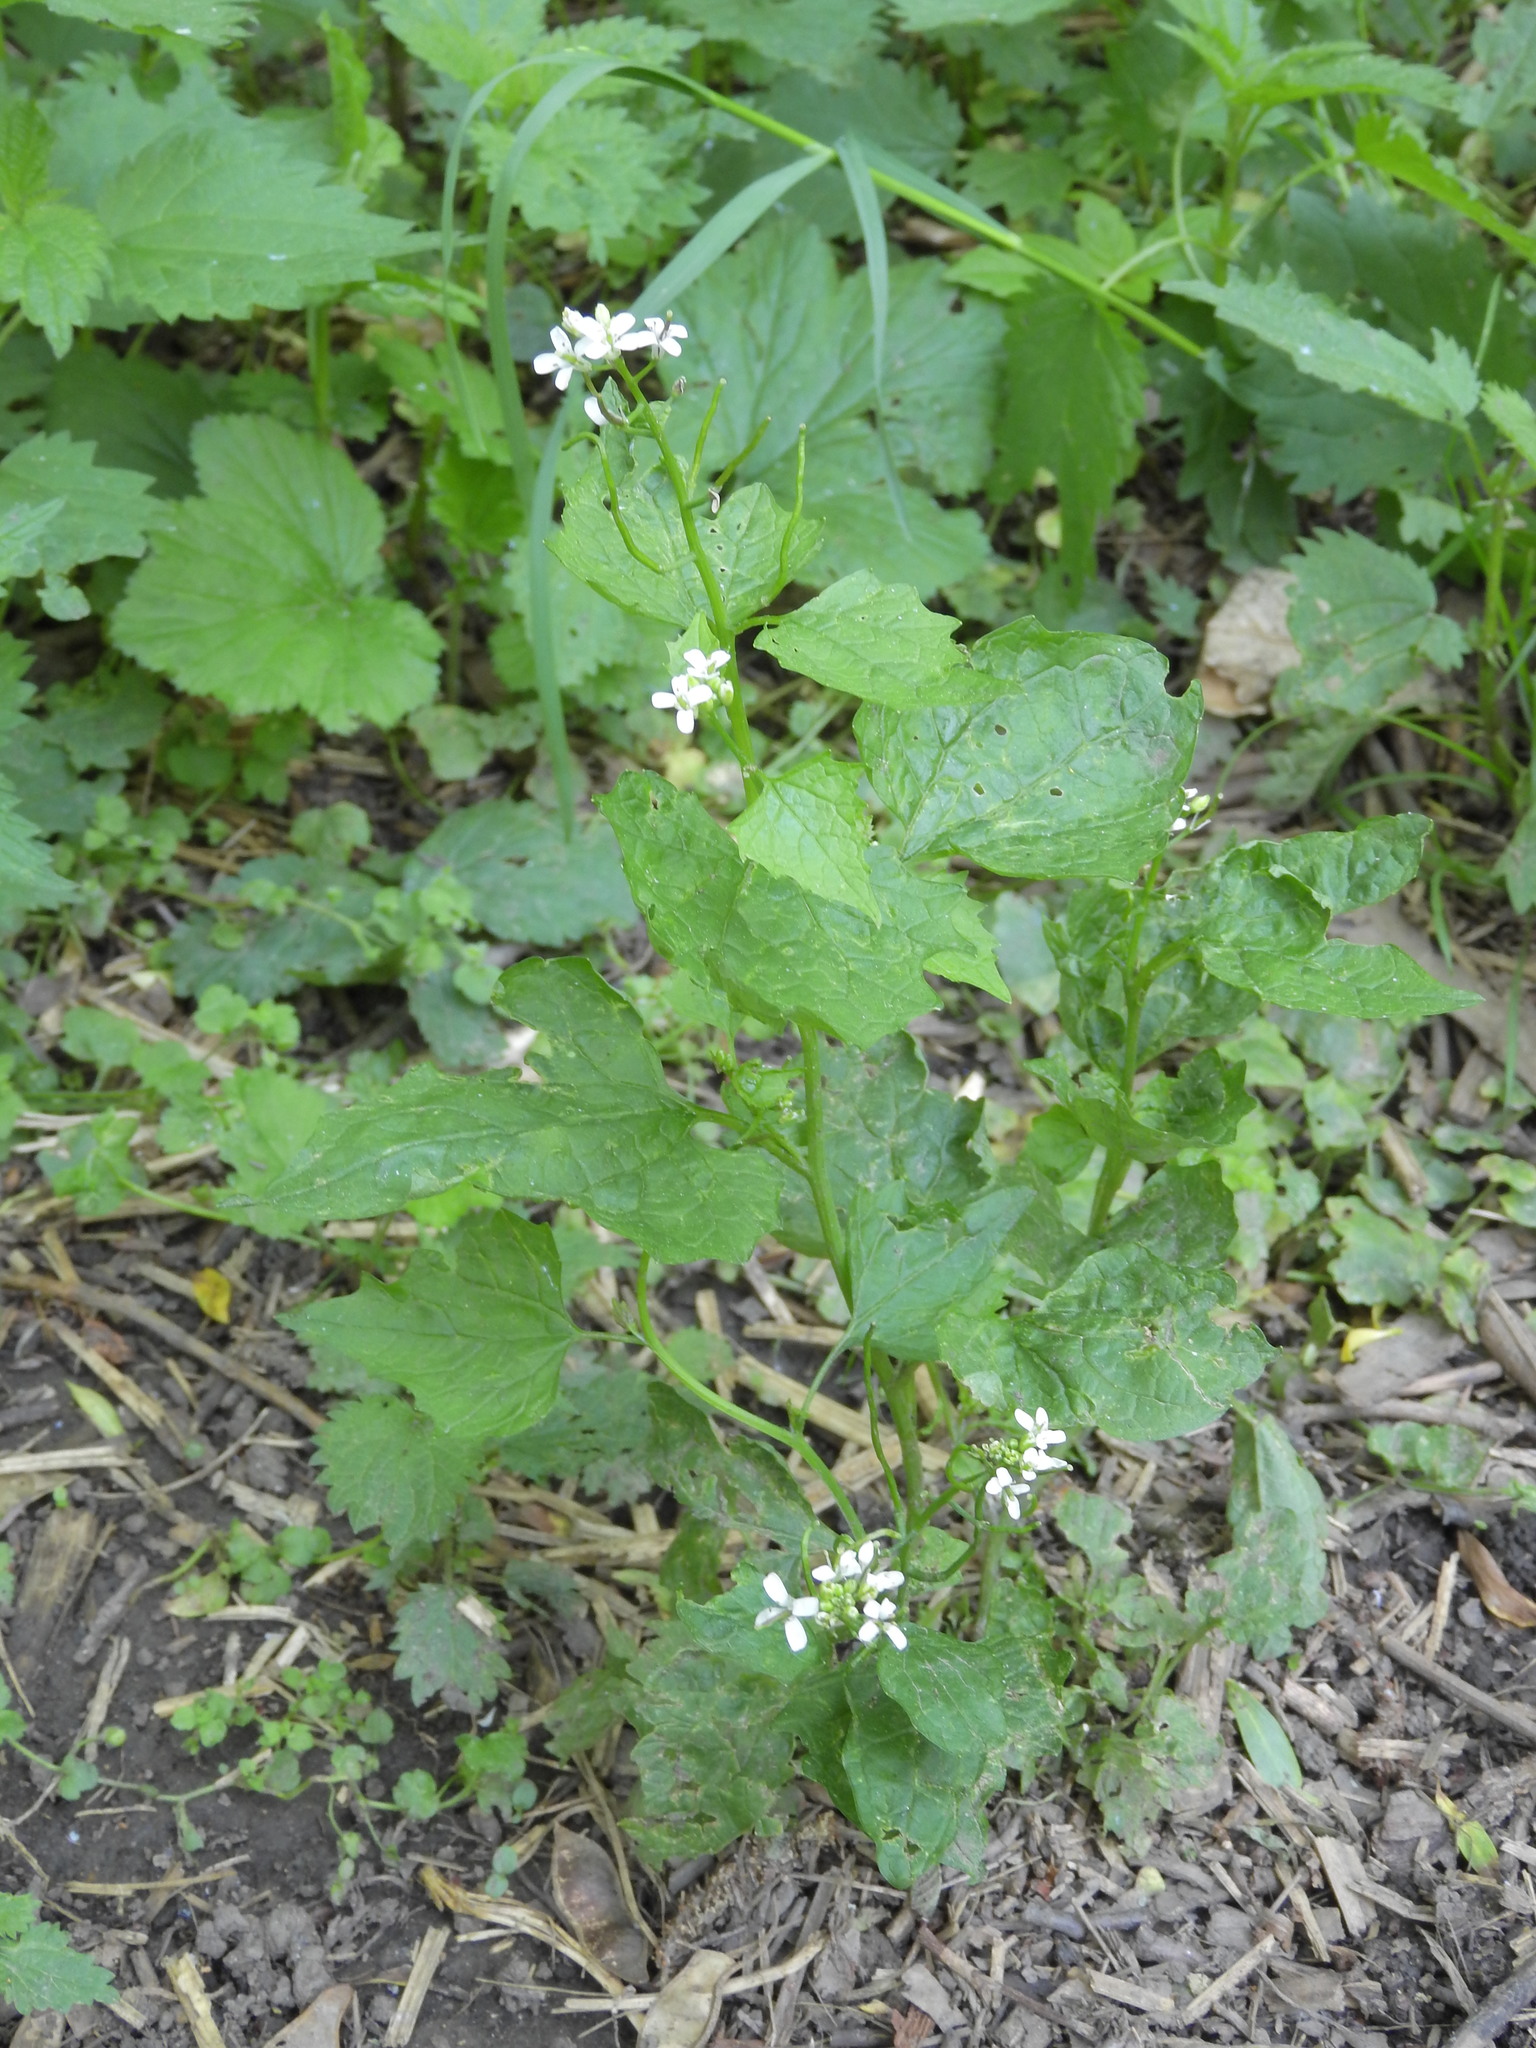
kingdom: Plantae
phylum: Tracheophyta
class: Magnoliopsida
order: Brassicales
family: Brassicaceae
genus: Alliaria
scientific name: Alliaria petiolata
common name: Garlic mustard
